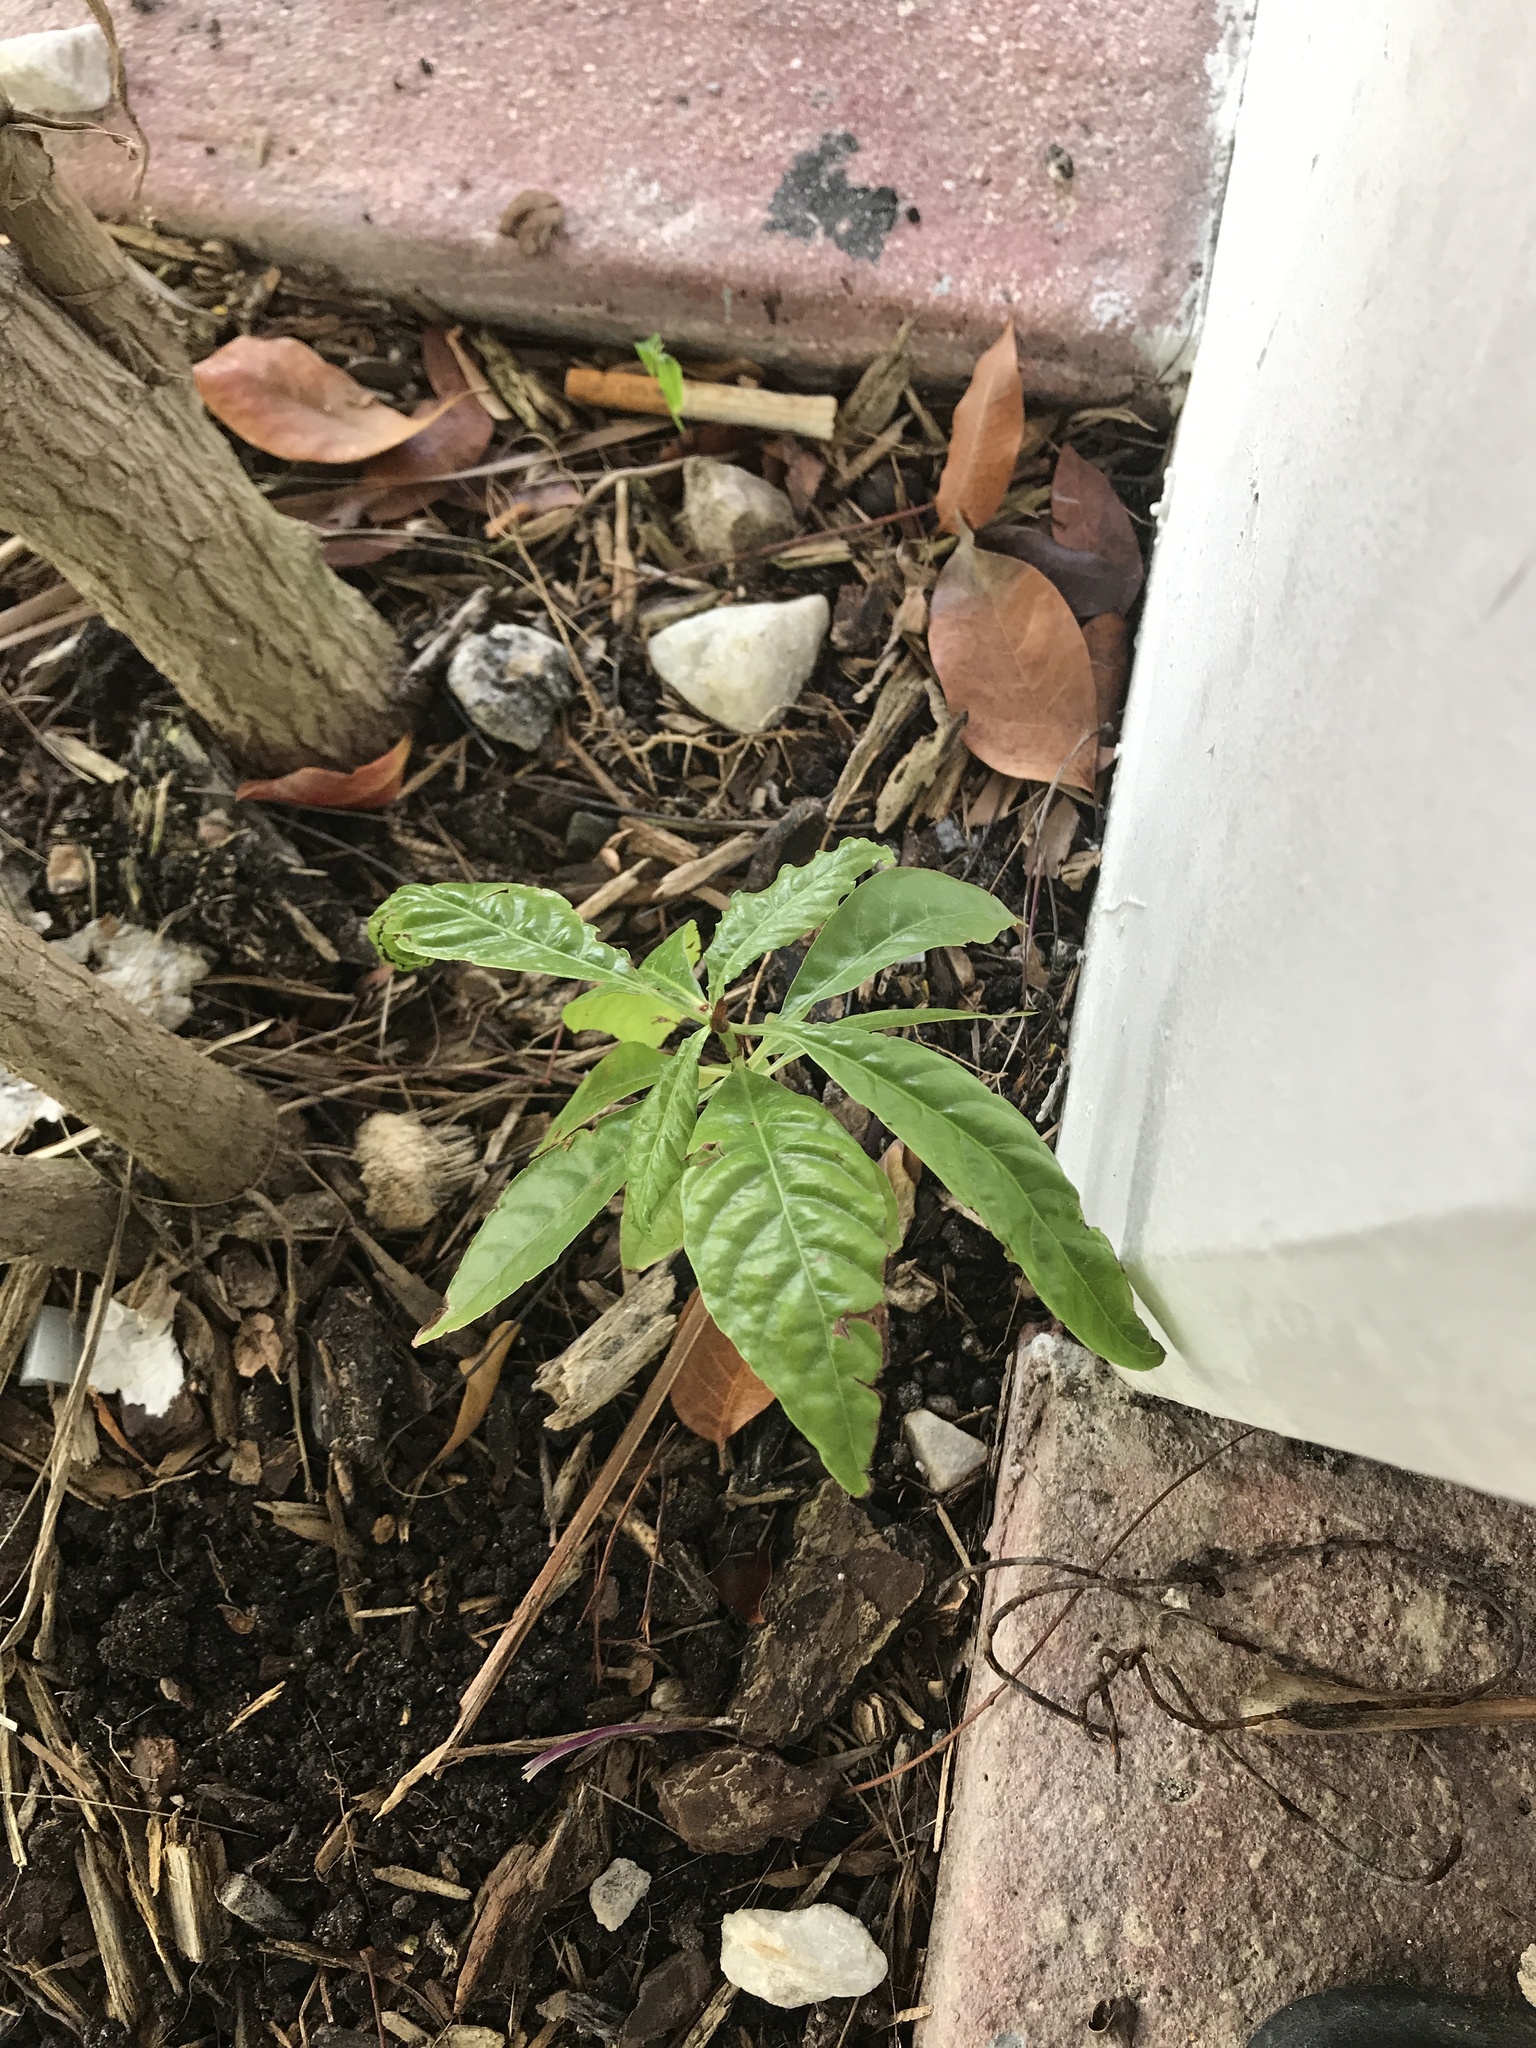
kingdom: Plantae
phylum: Tracheophyta
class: Magnoliopsida
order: Sapindales
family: Anacardiaceae
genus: Mangifera
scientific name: Mangifera indica
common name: Mango
